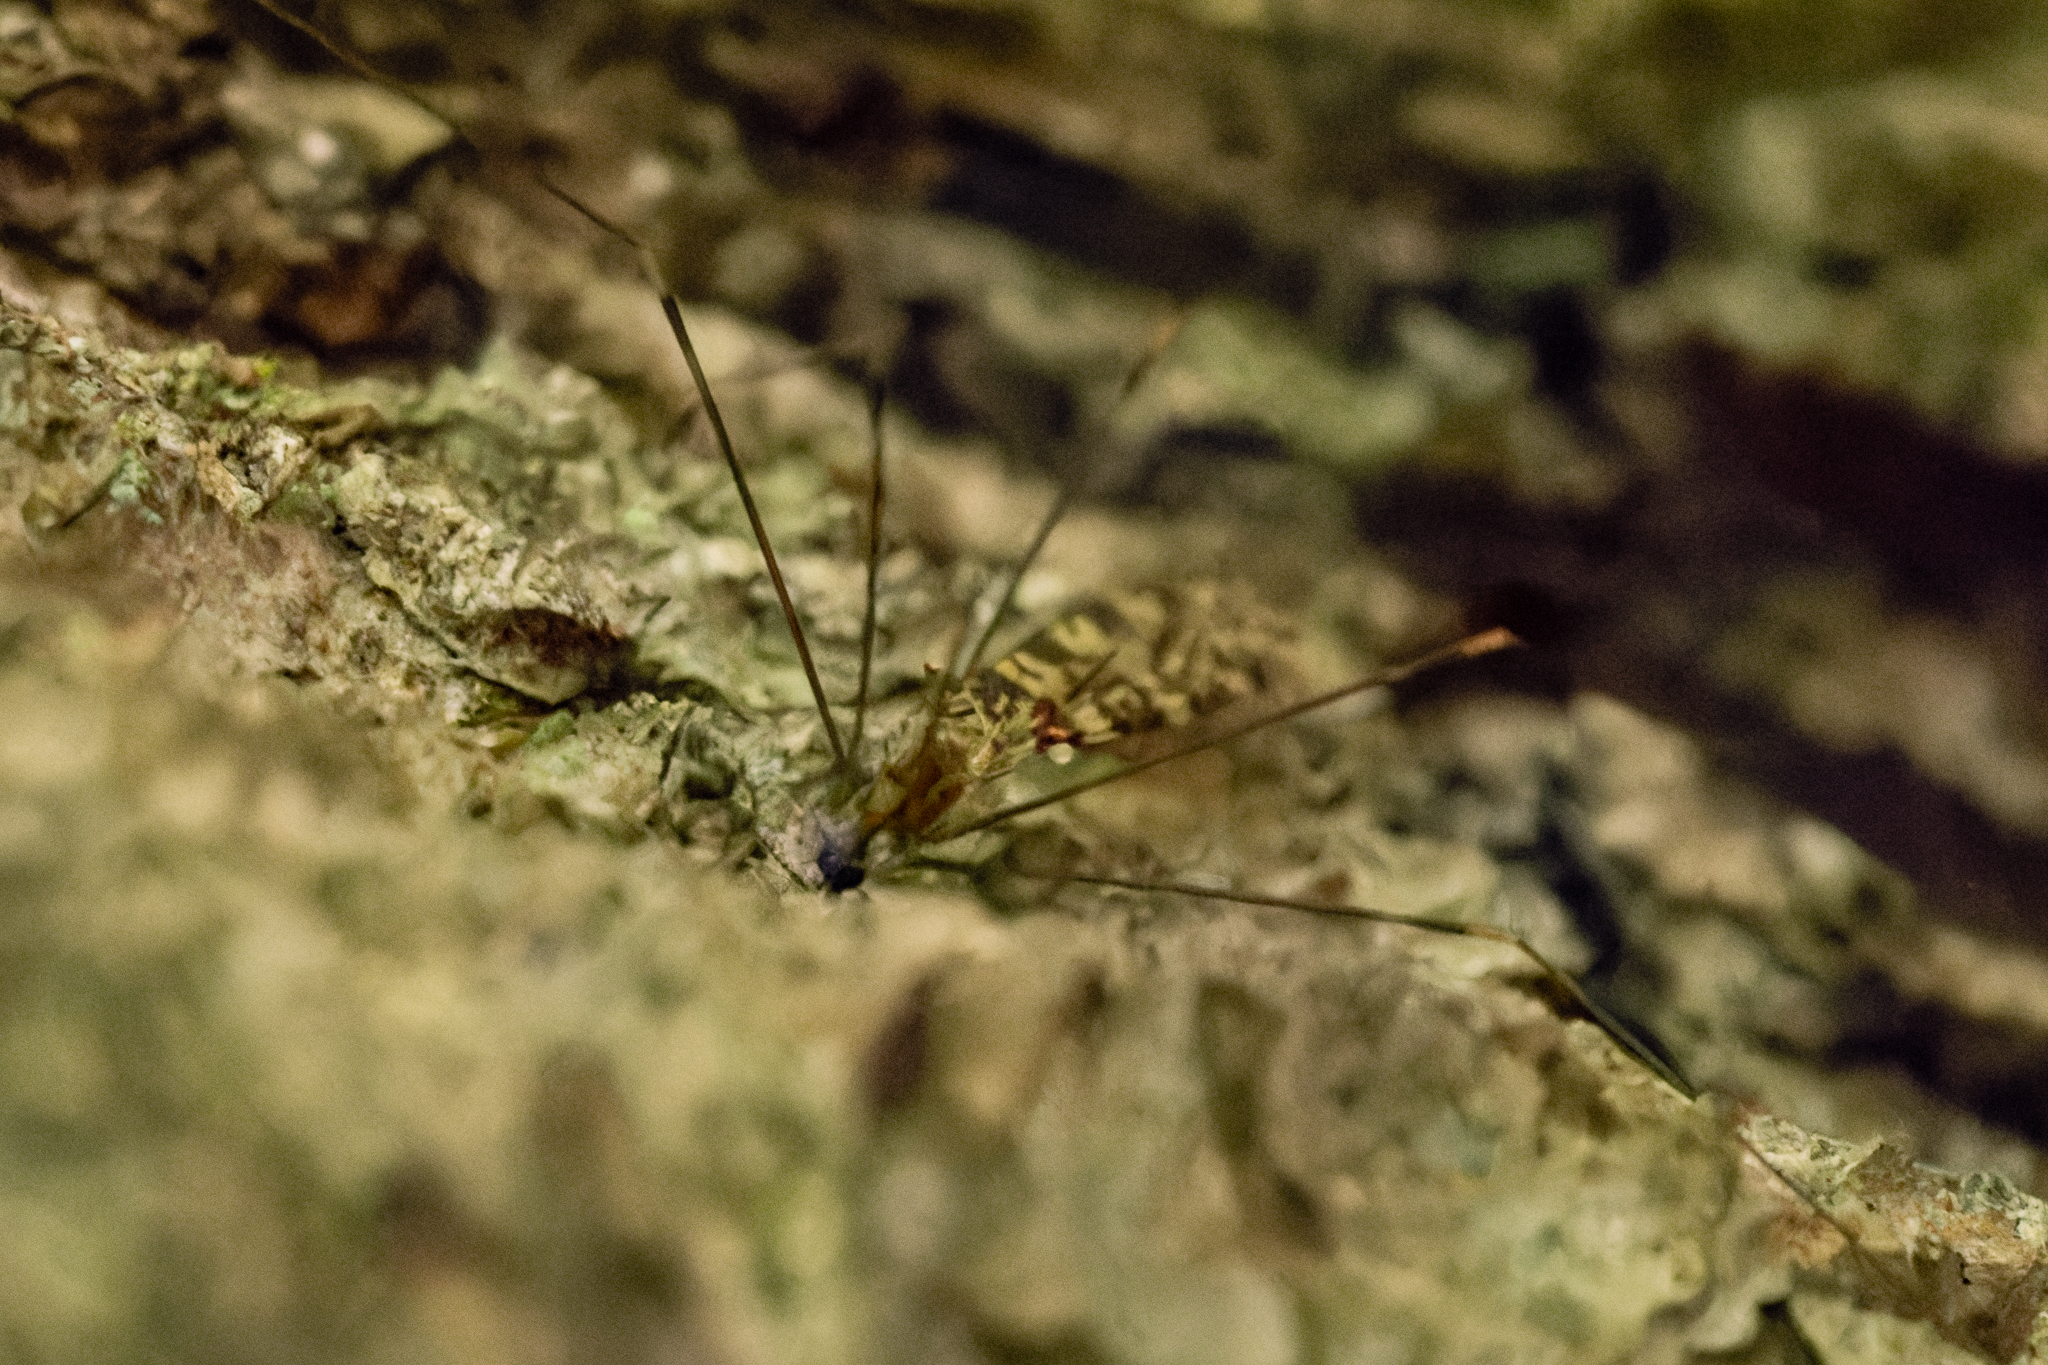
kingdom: Animalia
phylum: Arthropoda
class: Insecta
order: Diptera
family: Limoniidae
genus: Limonia
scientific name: Limonia annulata
